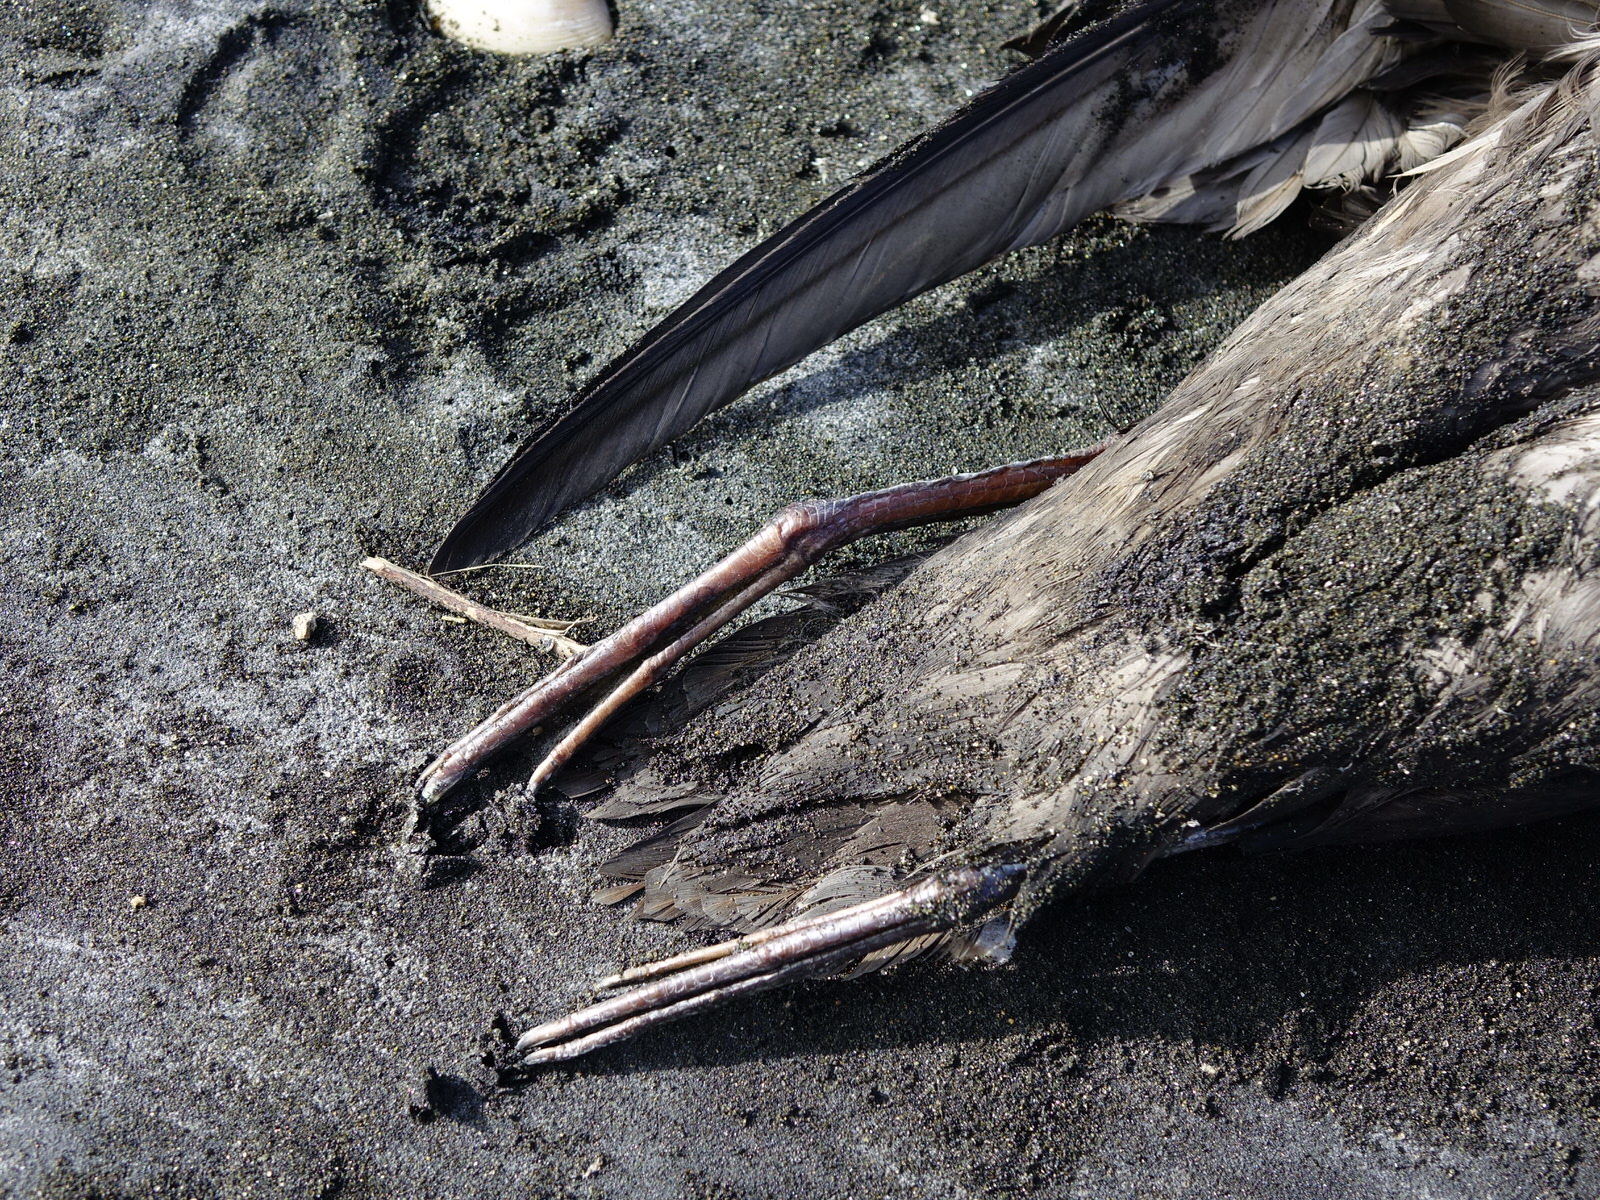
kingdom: Animalia
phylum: Chordata
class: Aves
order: Procellariiformes
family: Procellariidae
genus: Puffinus
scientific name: Puffinus griseus
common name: Sooty shearwater
